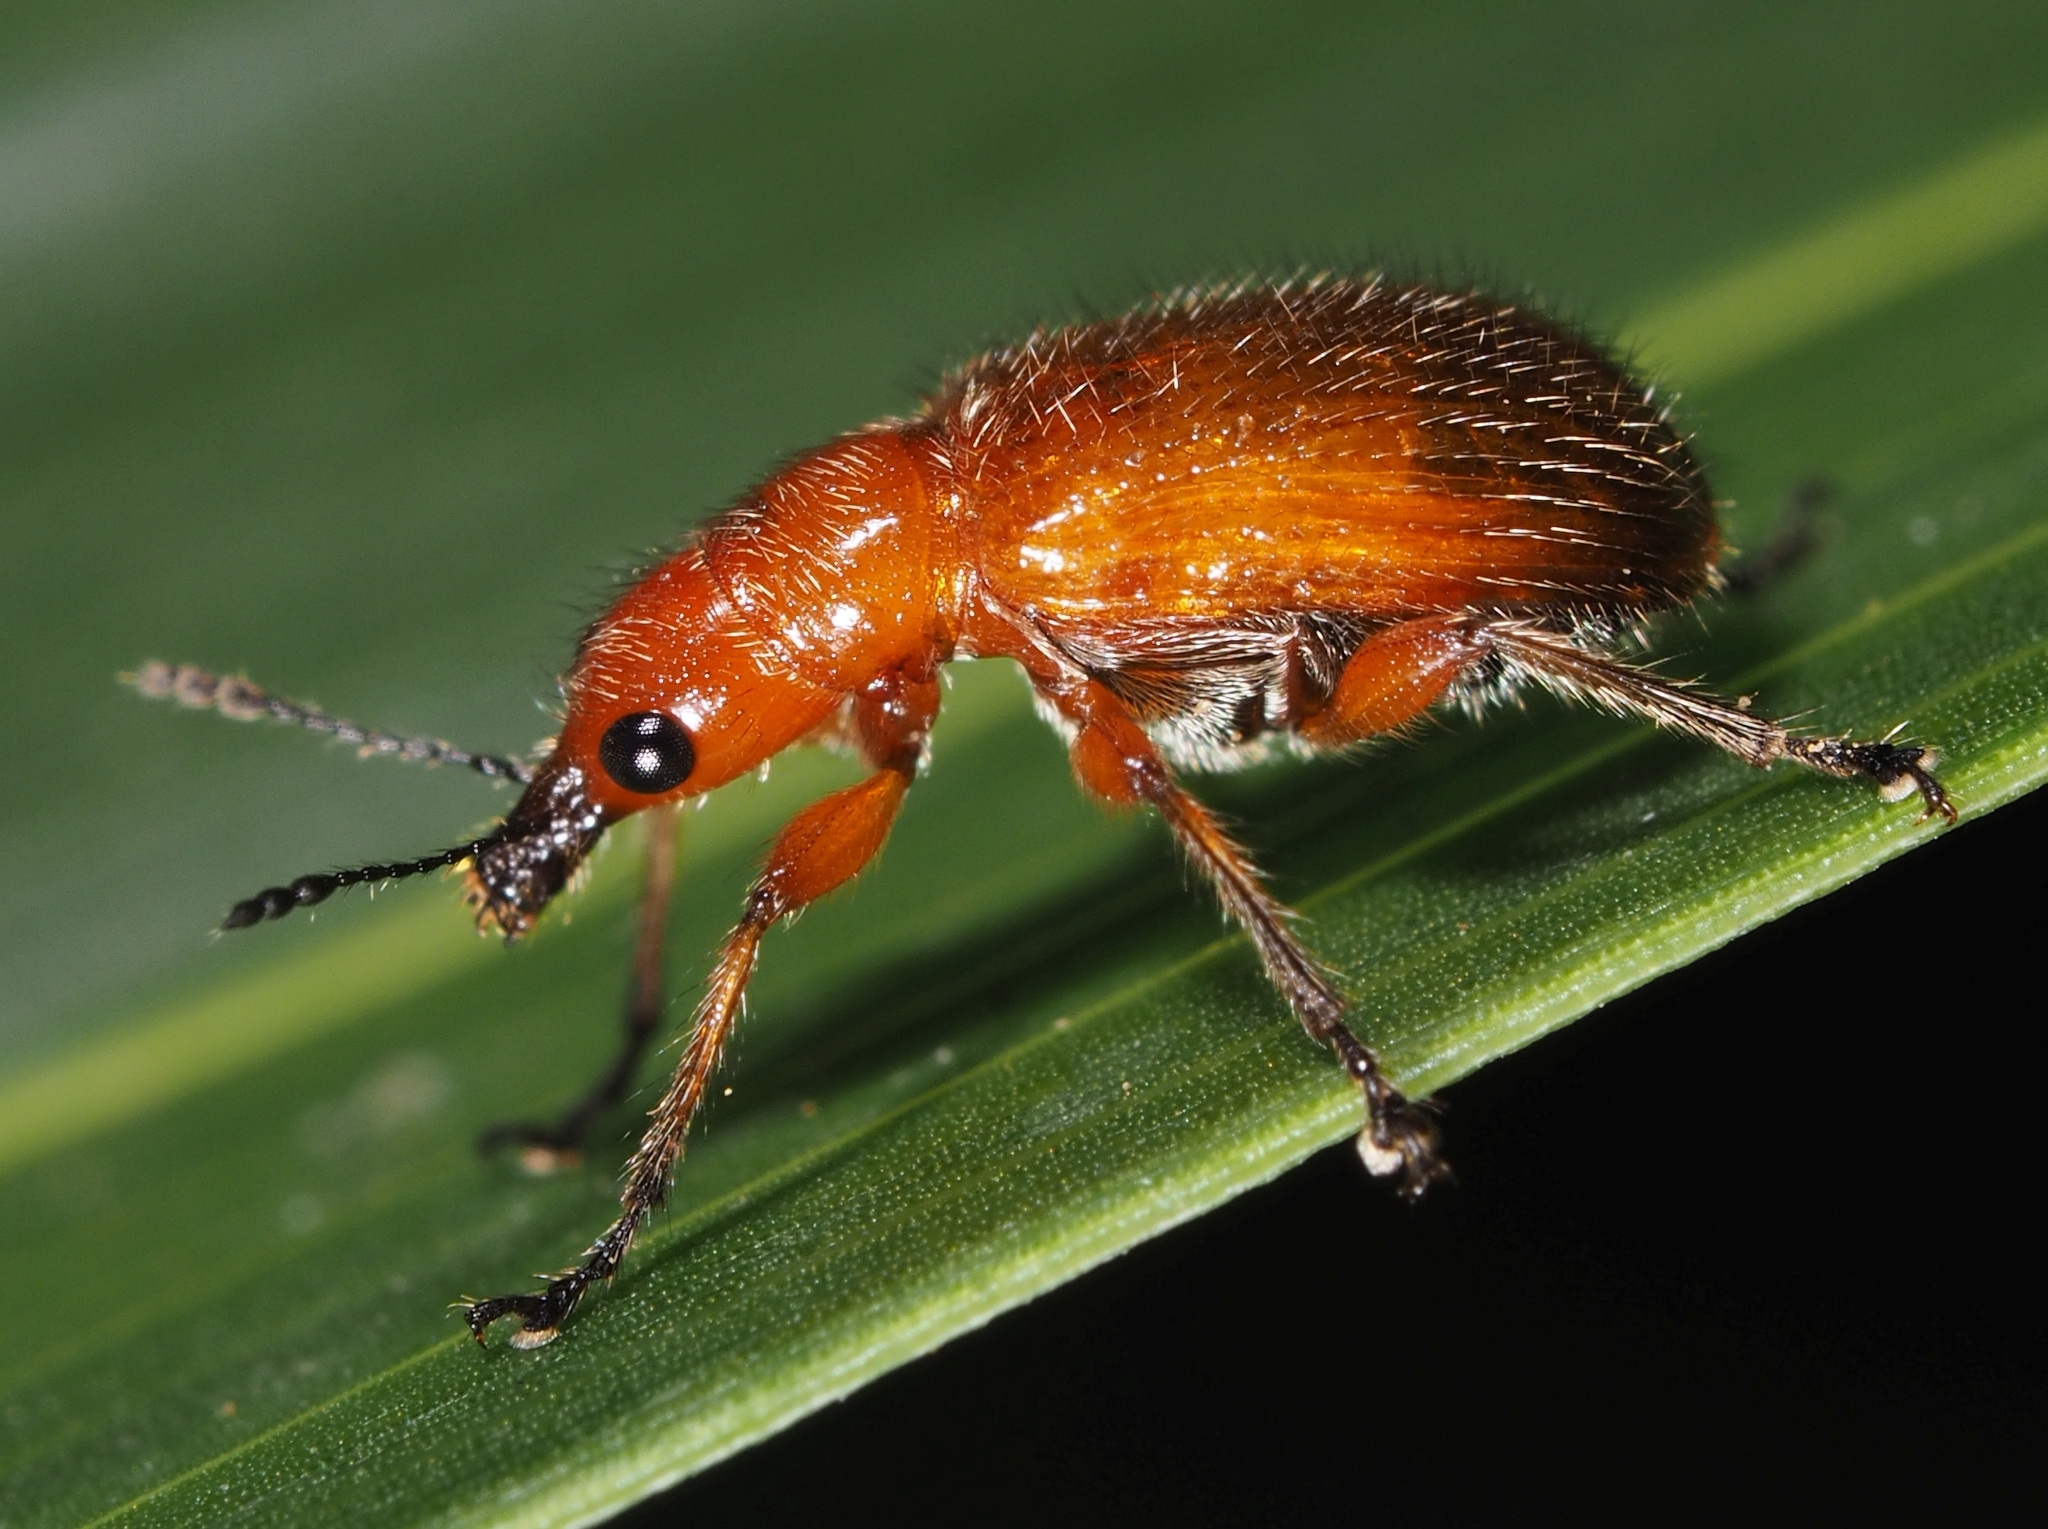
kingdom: Animalia
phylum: Arthropoda
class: Insecta
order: Coleoptera
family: Attelabidae
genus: Rhynchites
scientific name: Rhynchites praeustus
